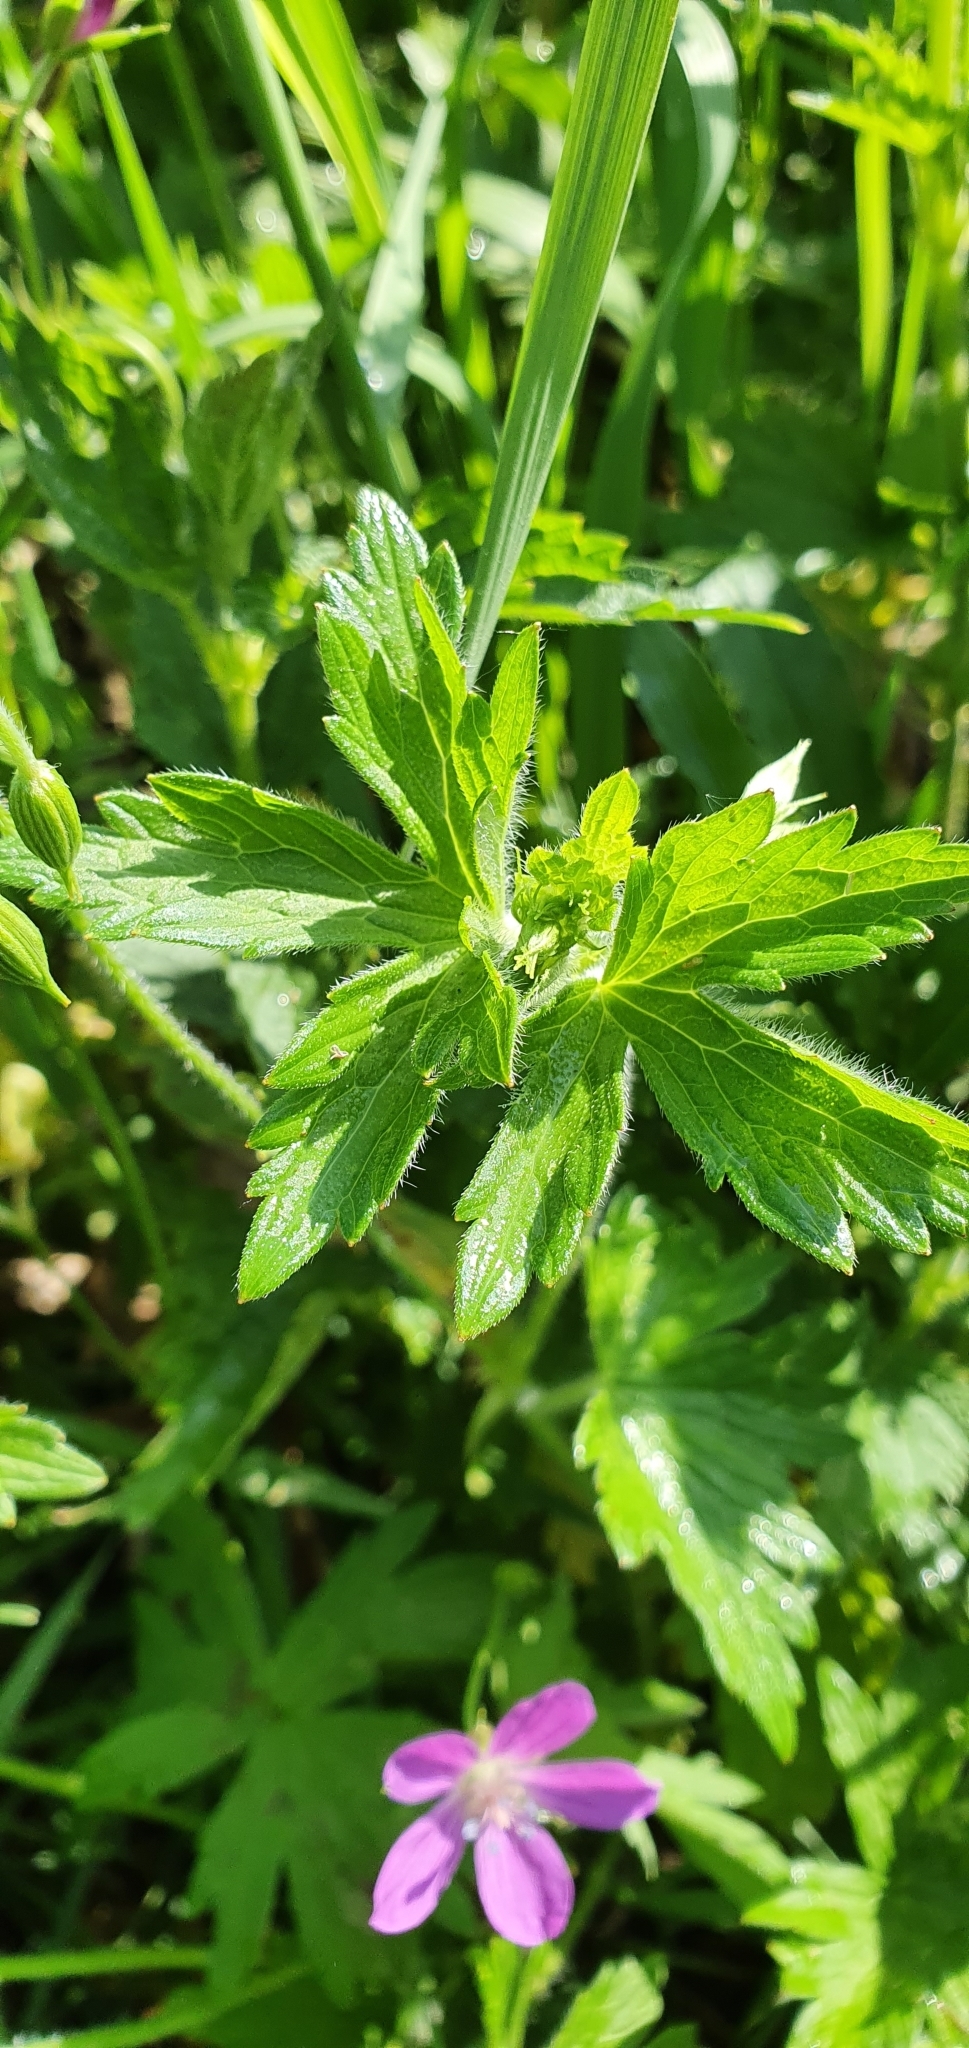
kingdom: Plantae
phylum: Tracheophyta
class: Magnoliopsida
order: Geraniales
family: Geraniaceae
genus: Geranium
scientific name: Geranium palustre
